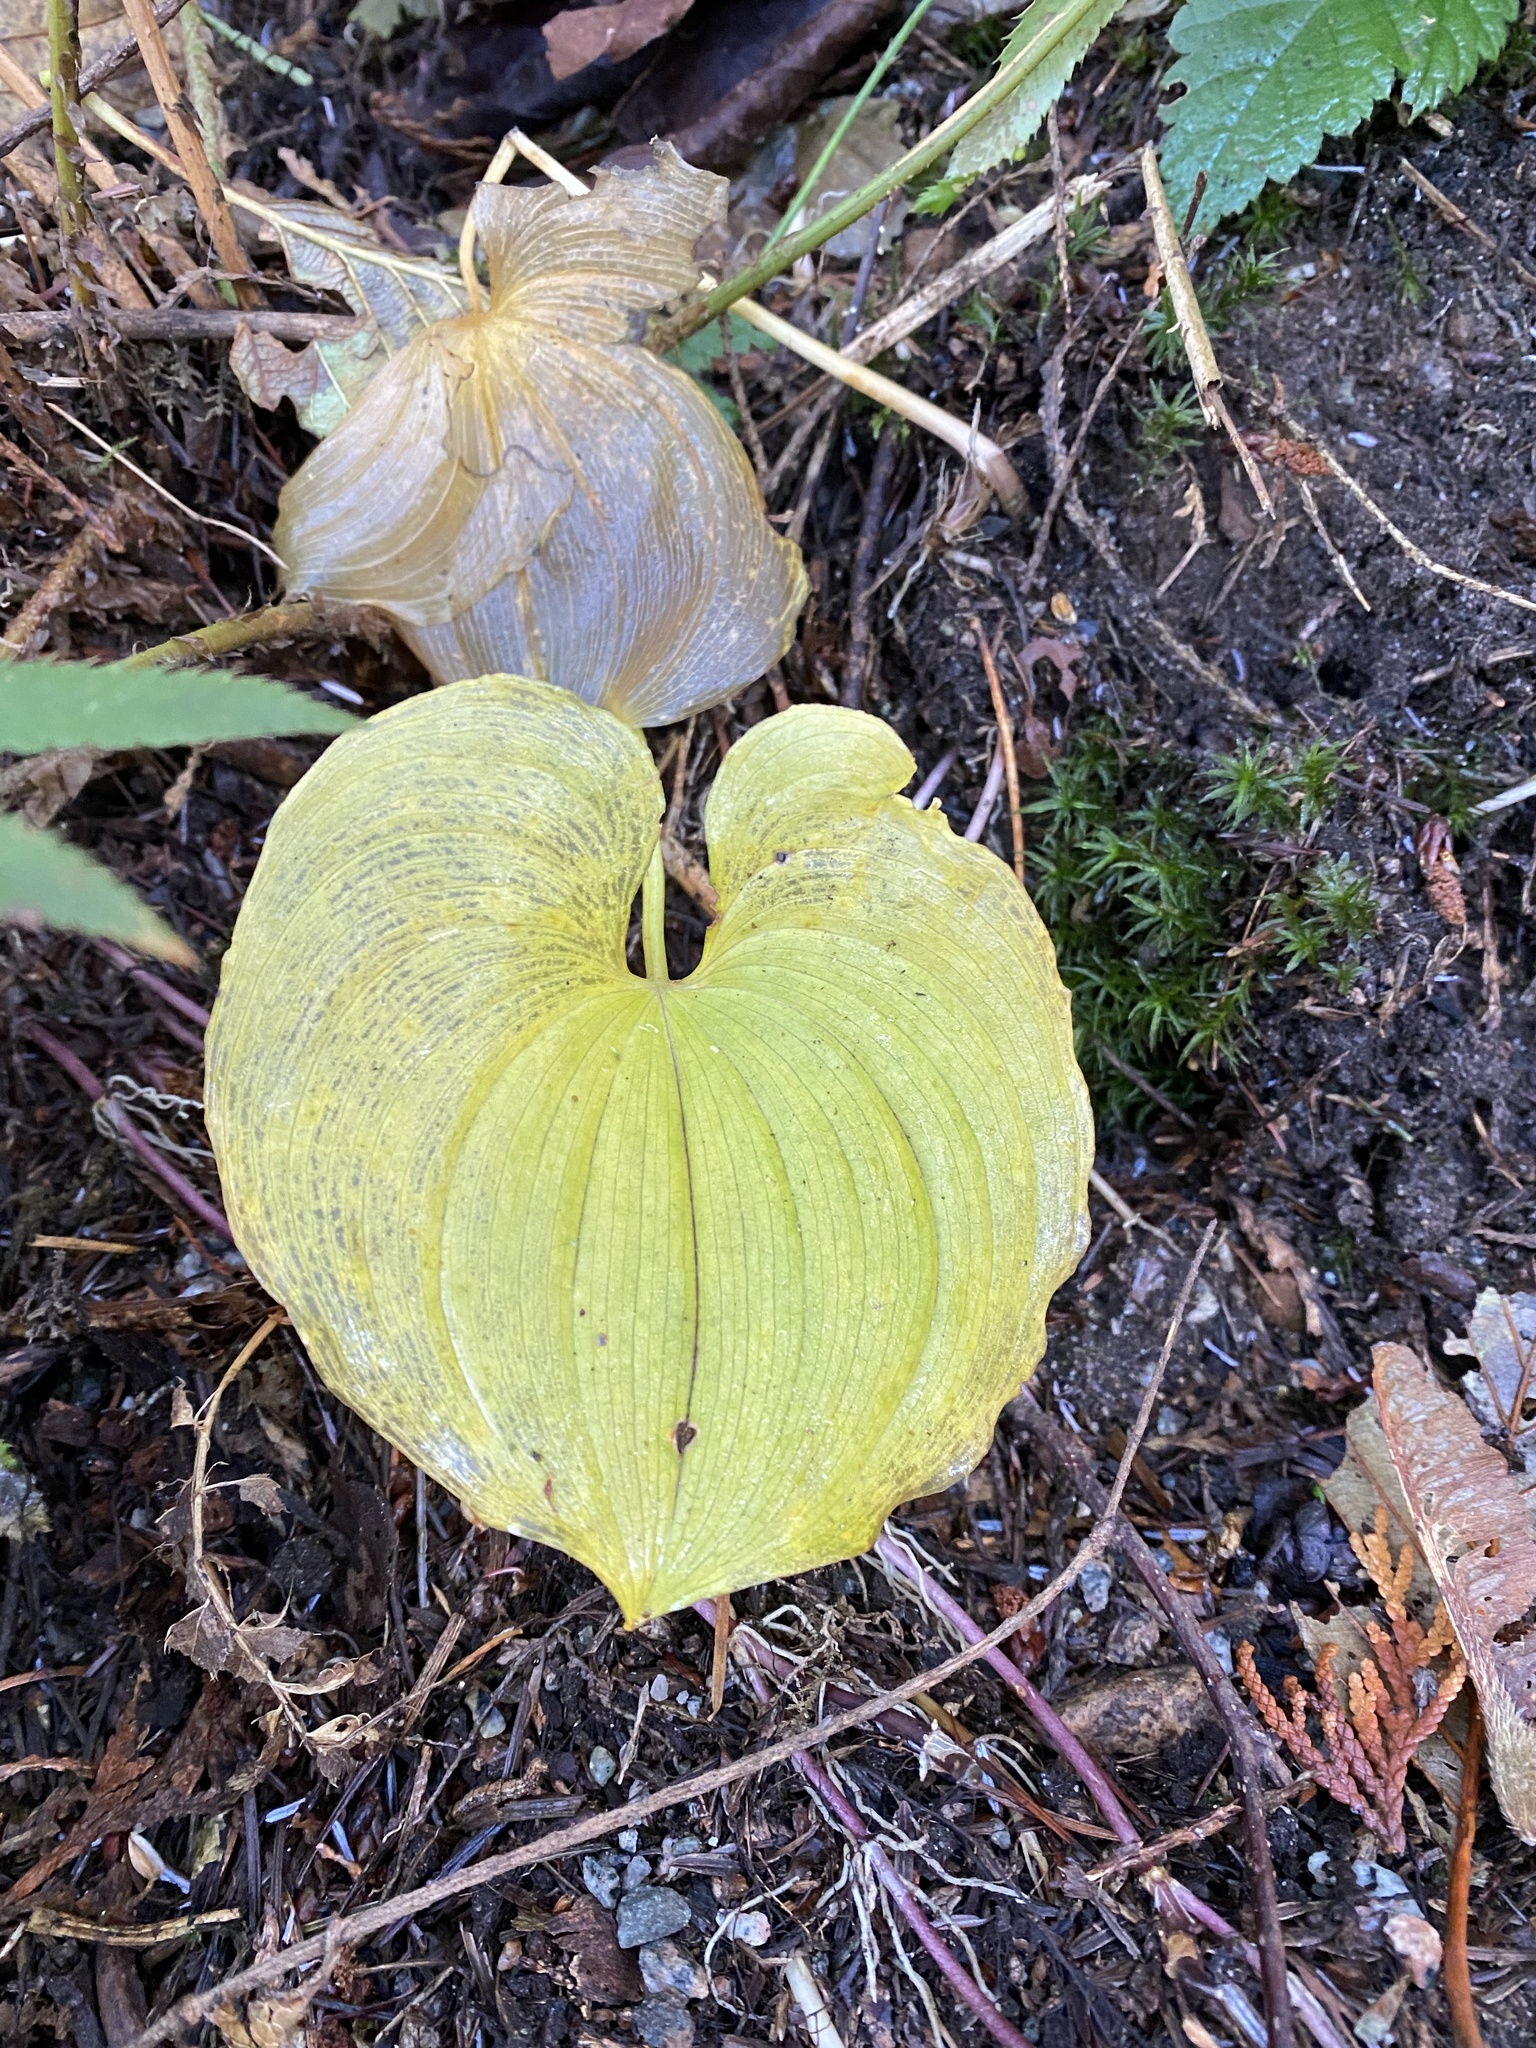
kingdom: Plantae
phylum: Tracheophyta
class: Liliopsida
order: Asparagales
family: Asparagaceae
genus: Maianthemum
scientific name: Maianthemum dilatatum
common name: False lily-of-the-valley
